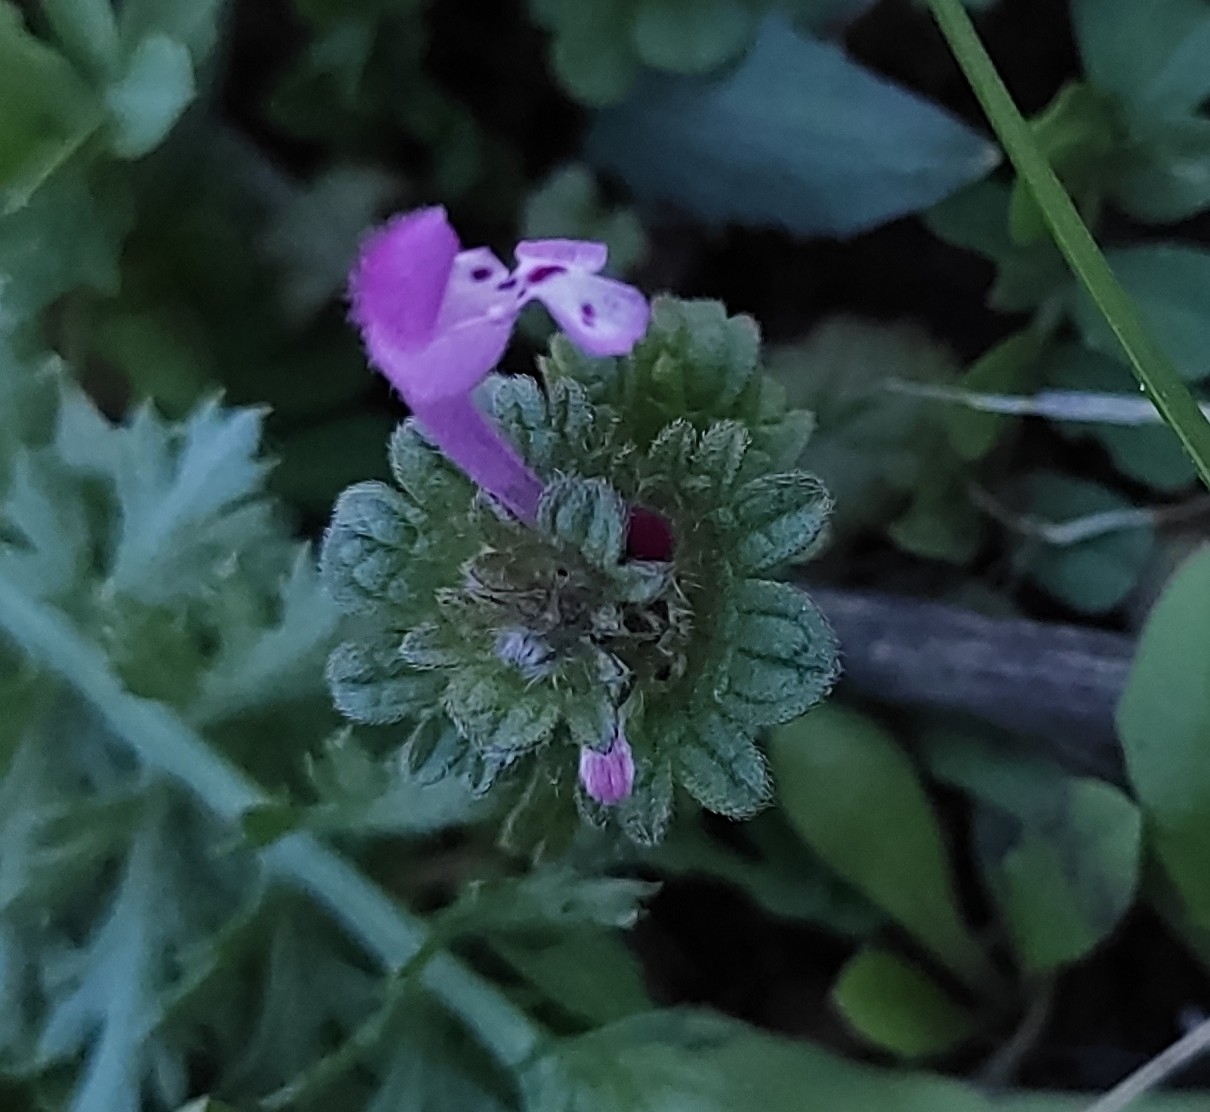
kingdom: Plantae
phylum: Tracheophyta
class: Magnoliopsida
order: Lamiales
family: Lamiaceae
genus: Lamium
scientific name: Lamium amplexicaule
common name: Henbit dead-nettle
